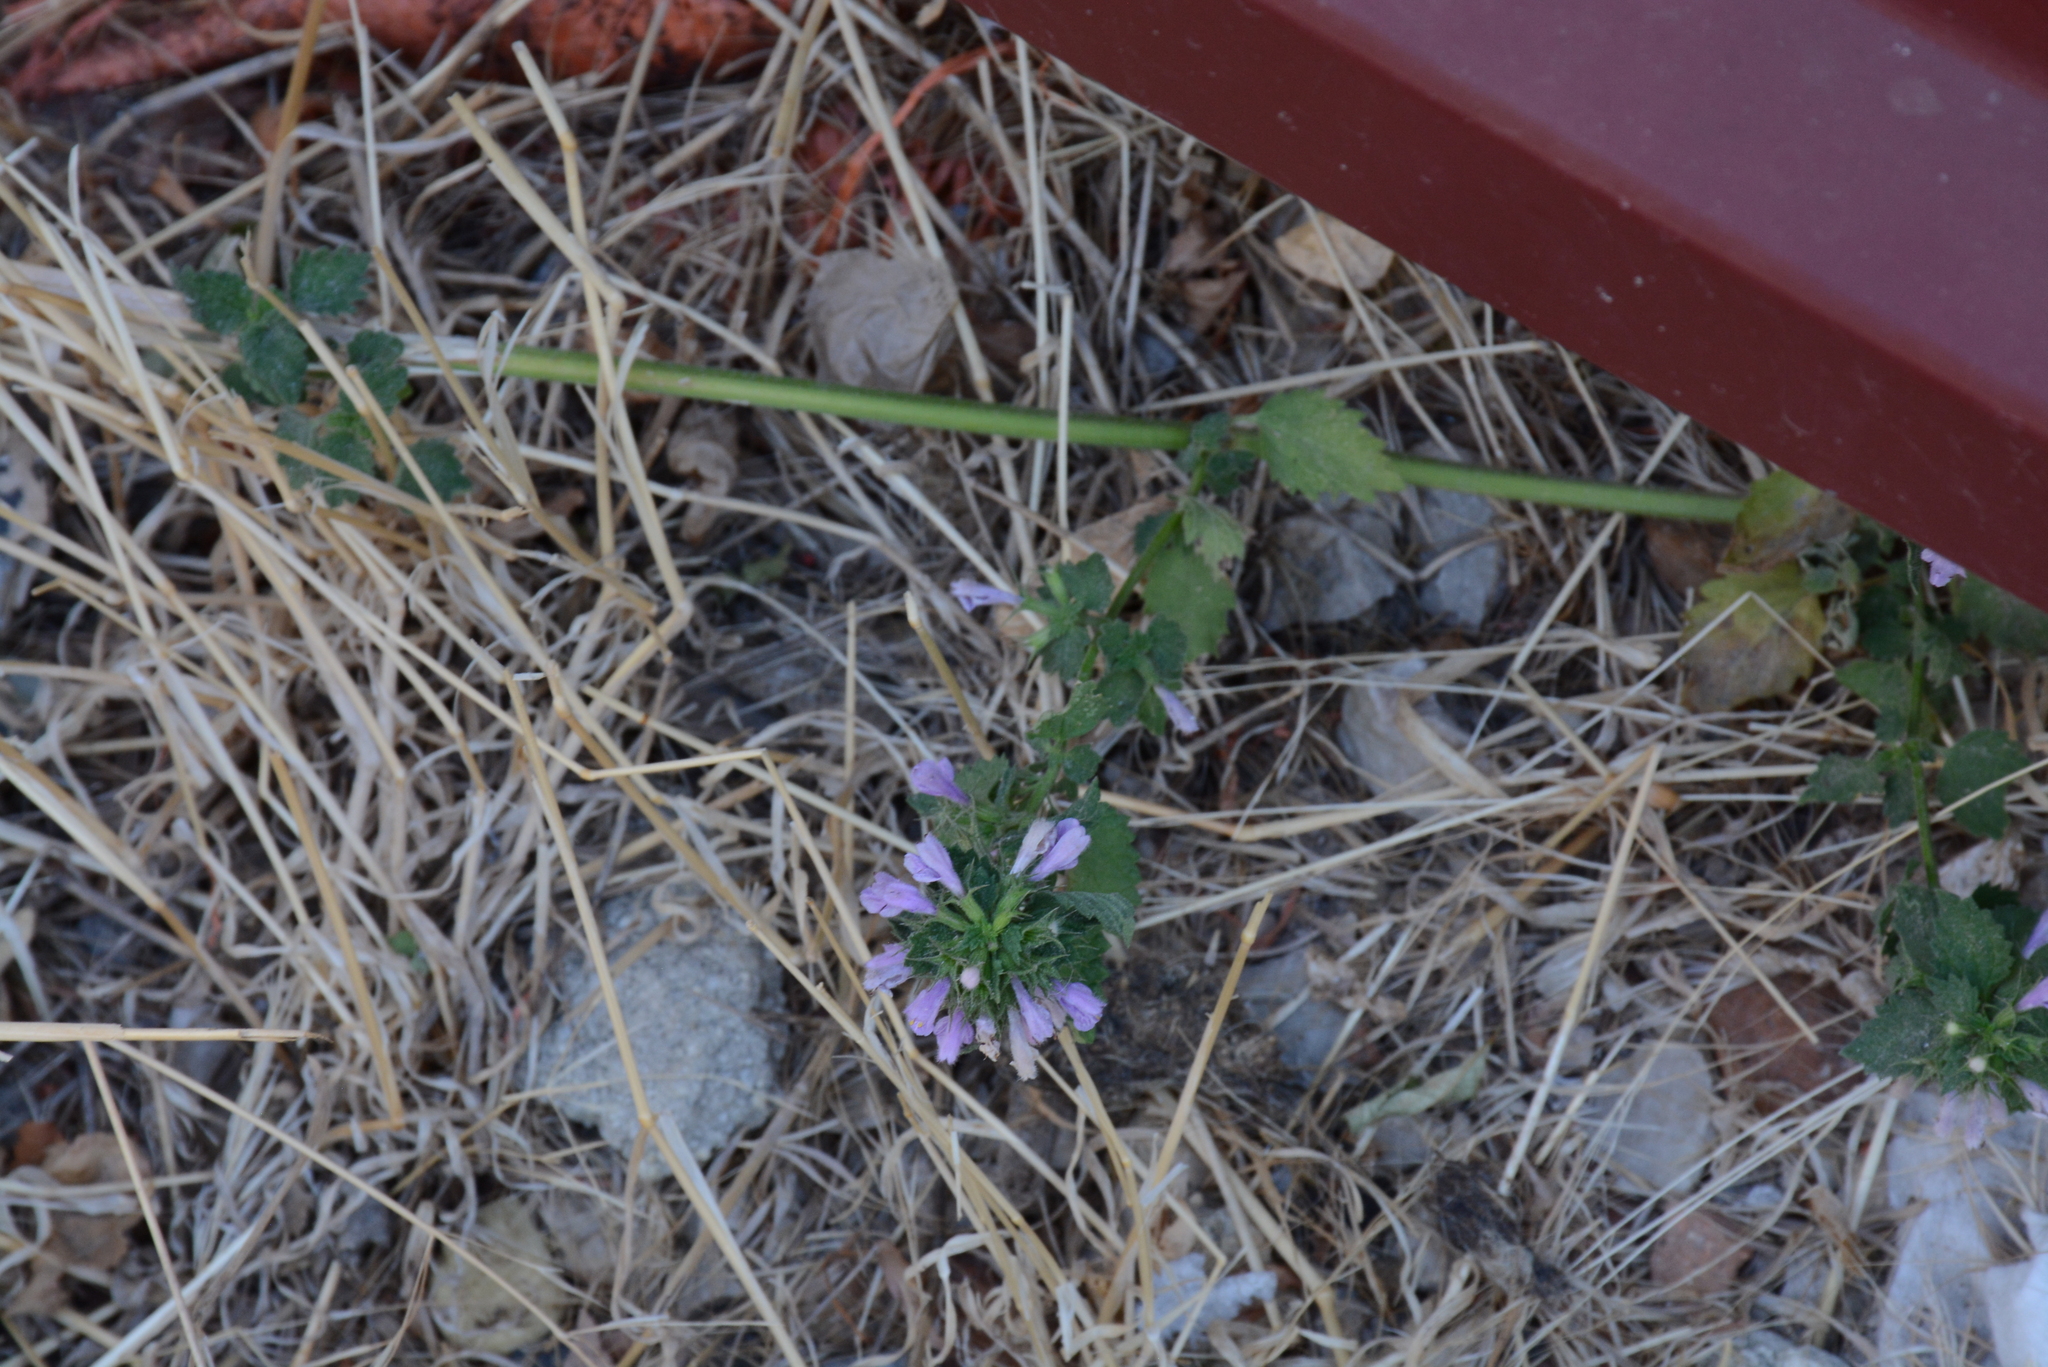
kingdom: Plantae
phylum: Tracheophyta
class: Magnoliopsida
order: Lamiales
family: Lamiaceae
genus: Ballota
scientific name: Ballota nigra
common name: Black horehound
